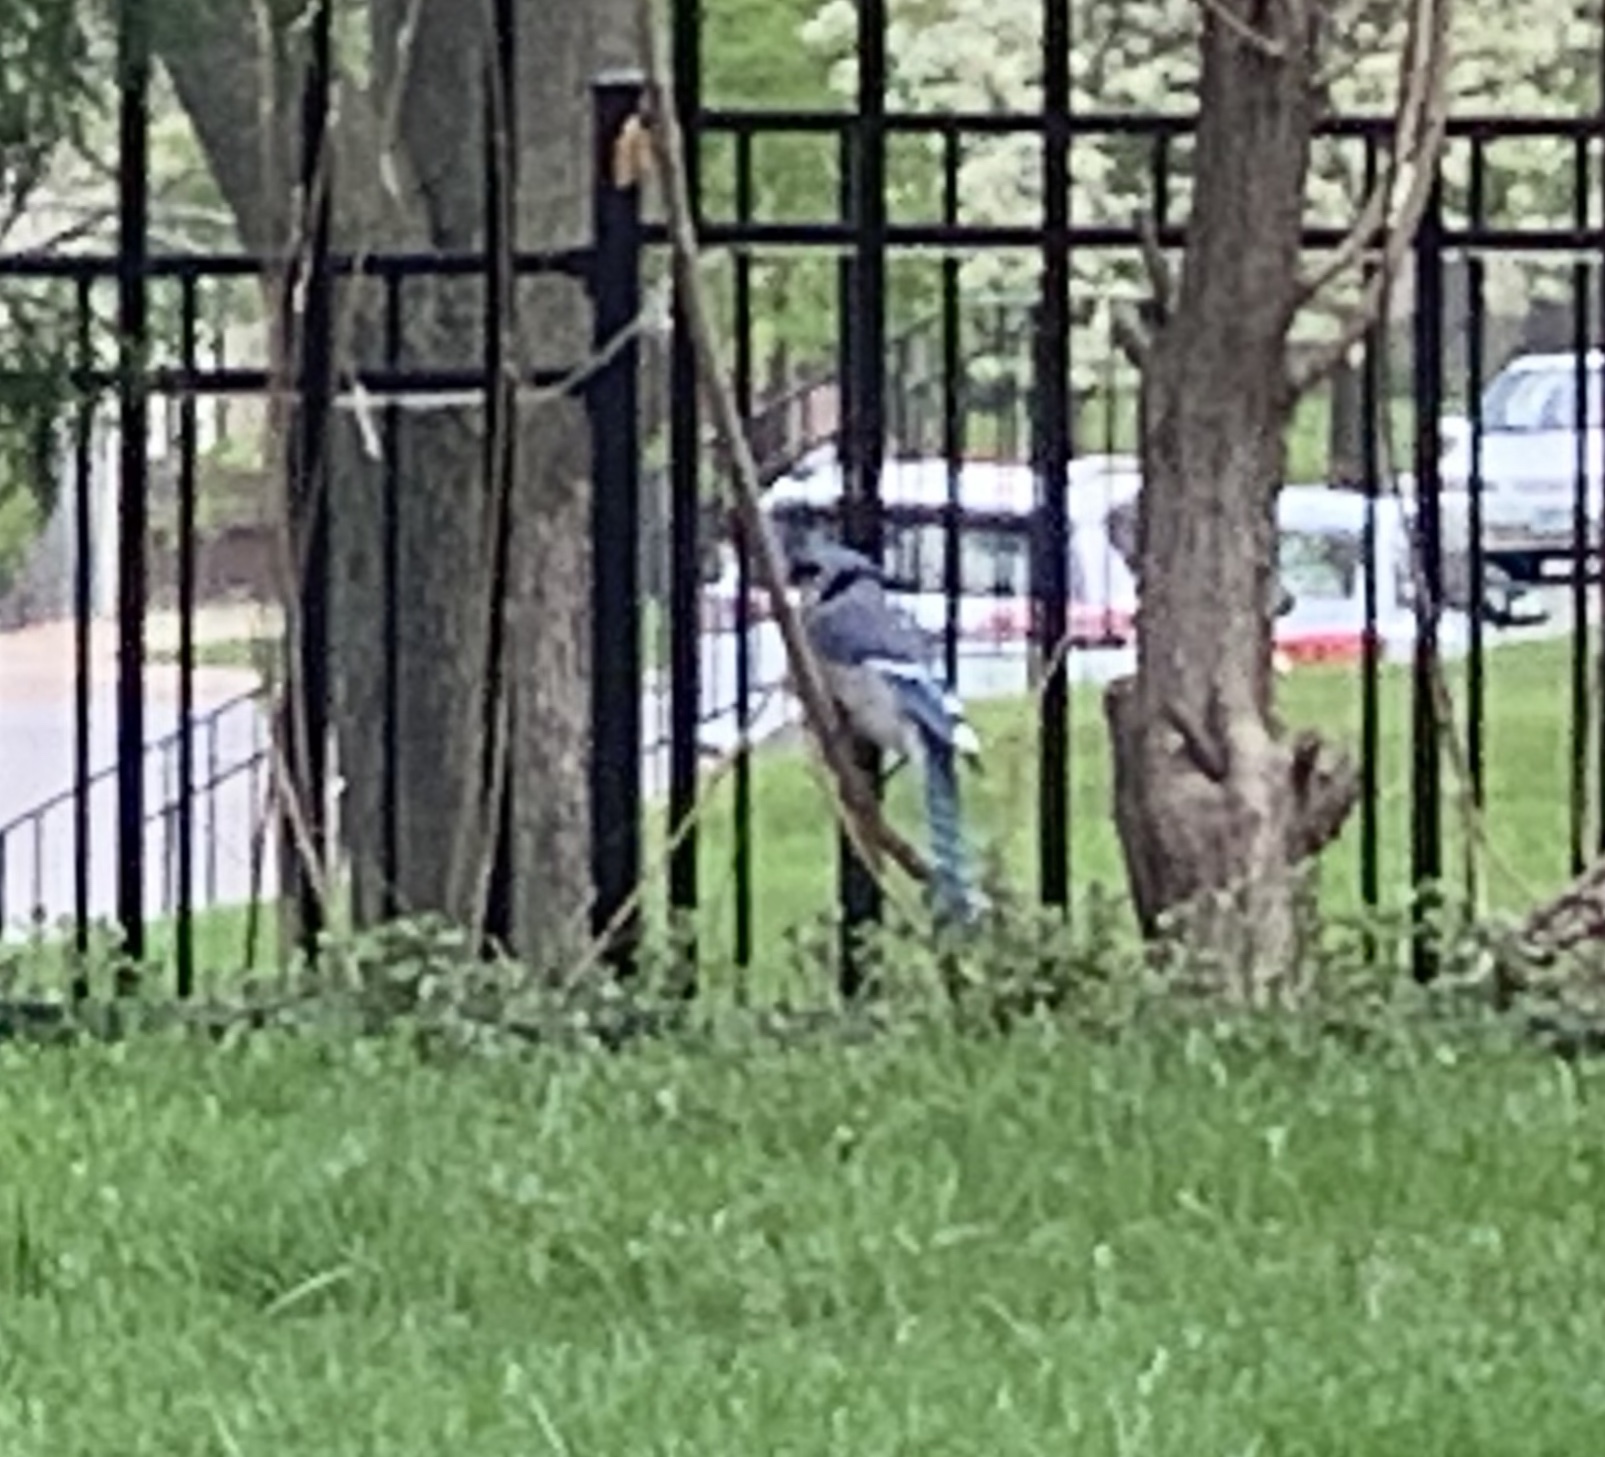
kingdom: Animalia
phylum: Chordata
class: Aves
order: Passeriformes
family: Corvidae
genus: Cyanocitta
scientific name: Cyanocitta cristata
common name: Blue jay
